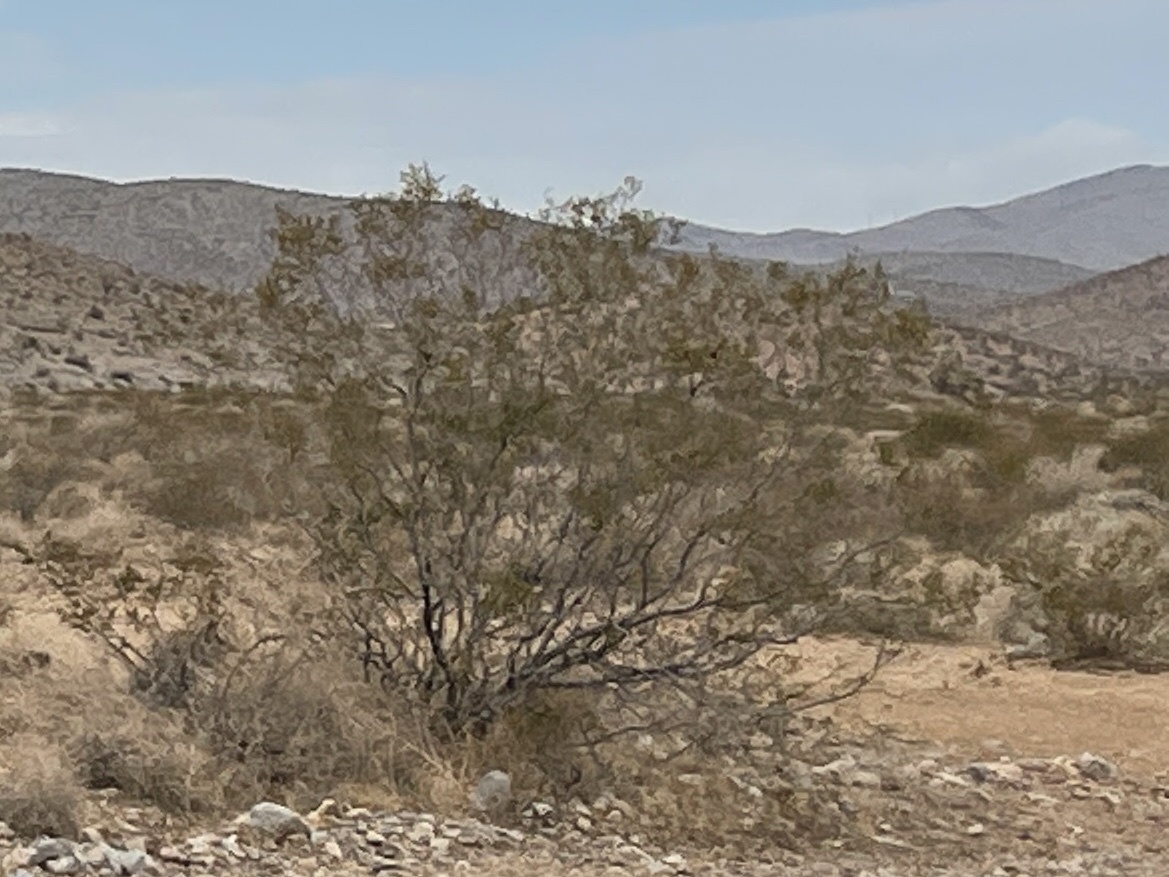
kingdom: Plantae
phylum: Tracheophyta
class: Magnoliopsida
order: Zygophyllales
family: Zygophyllaceae
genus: Larrea
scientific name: Larrea tridentata
